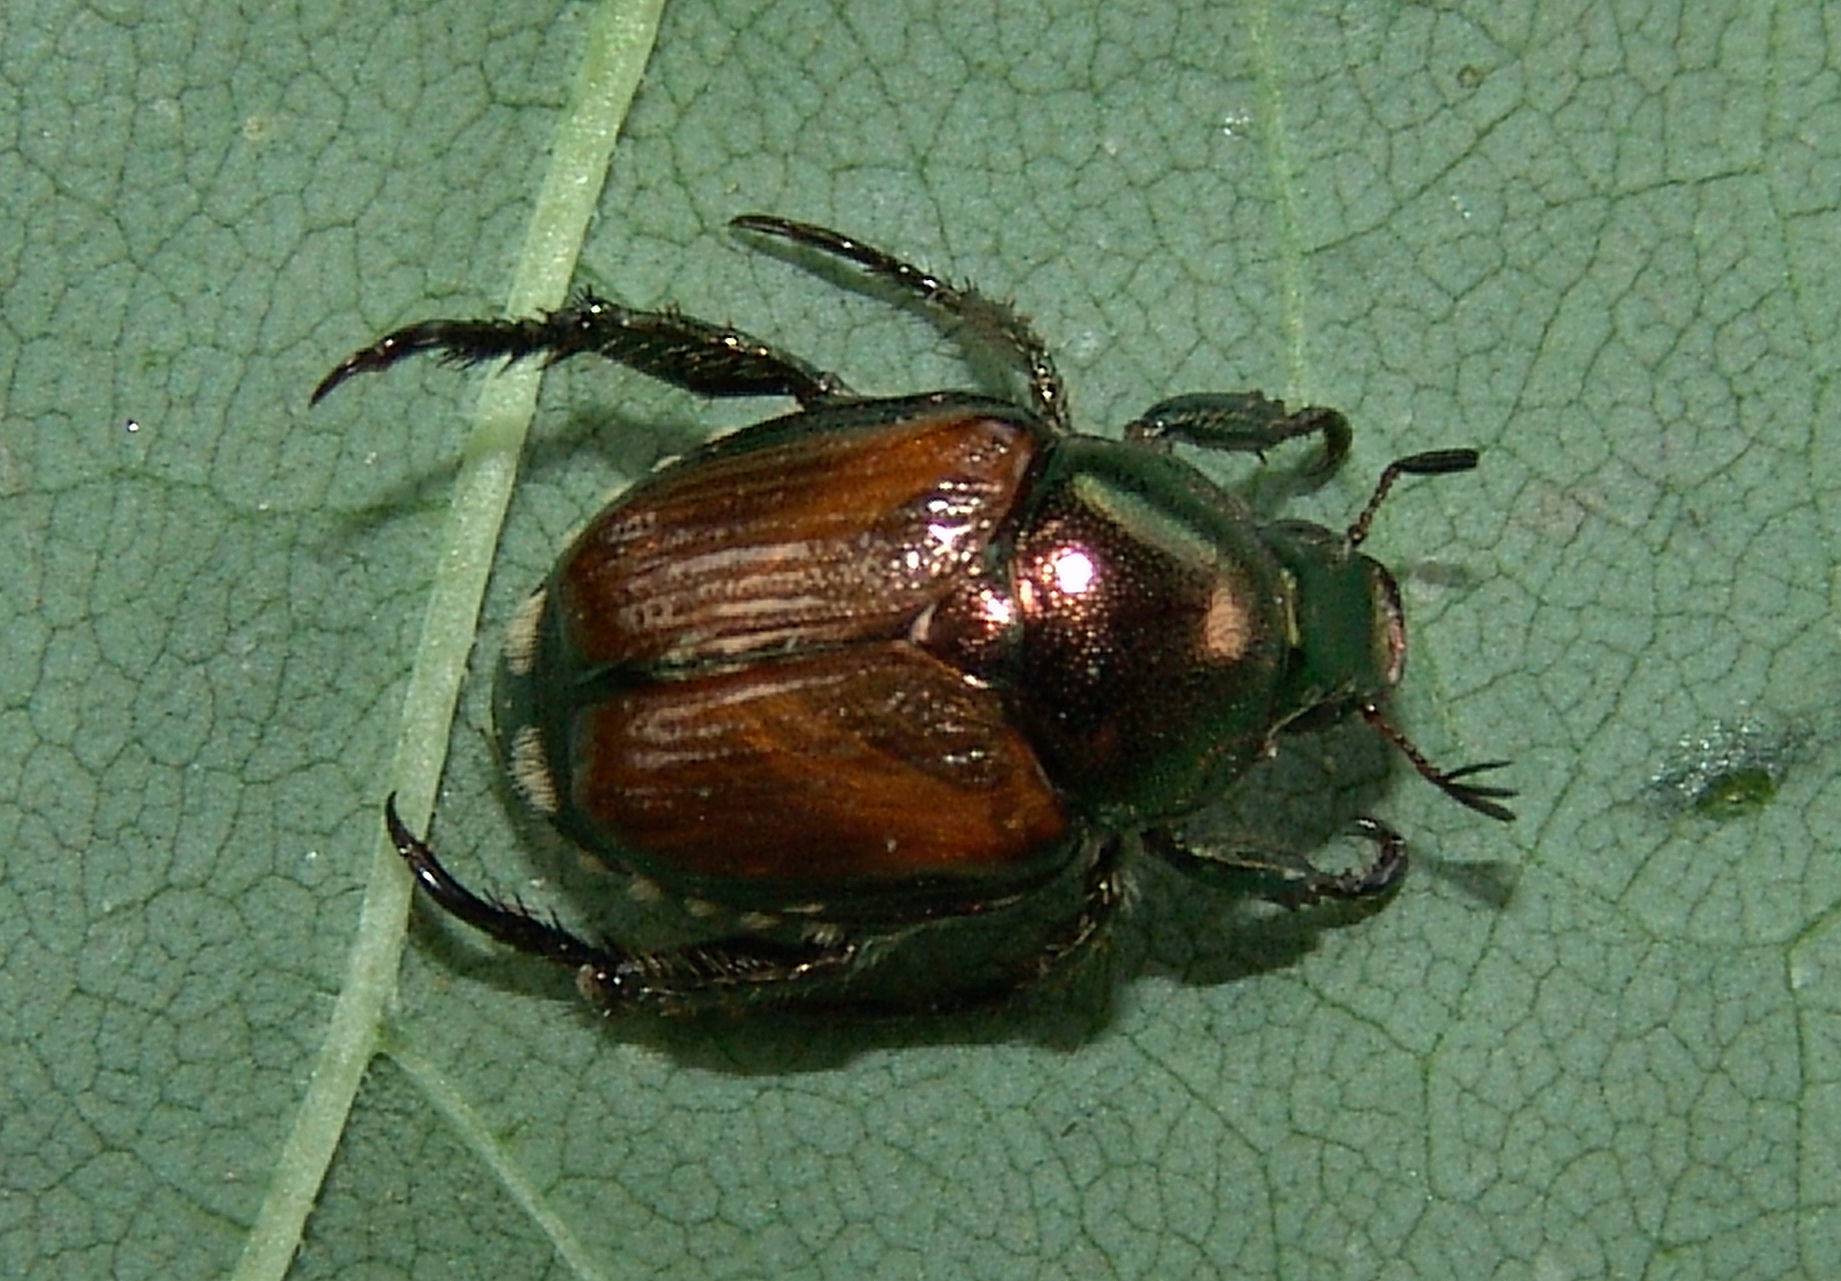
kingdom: Animalia
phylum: Arthropoda
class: Insecta
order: Coleoptera
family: Scarabaeidae
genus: Popillia
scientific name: Popillia japonica
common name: Japanese beetle
